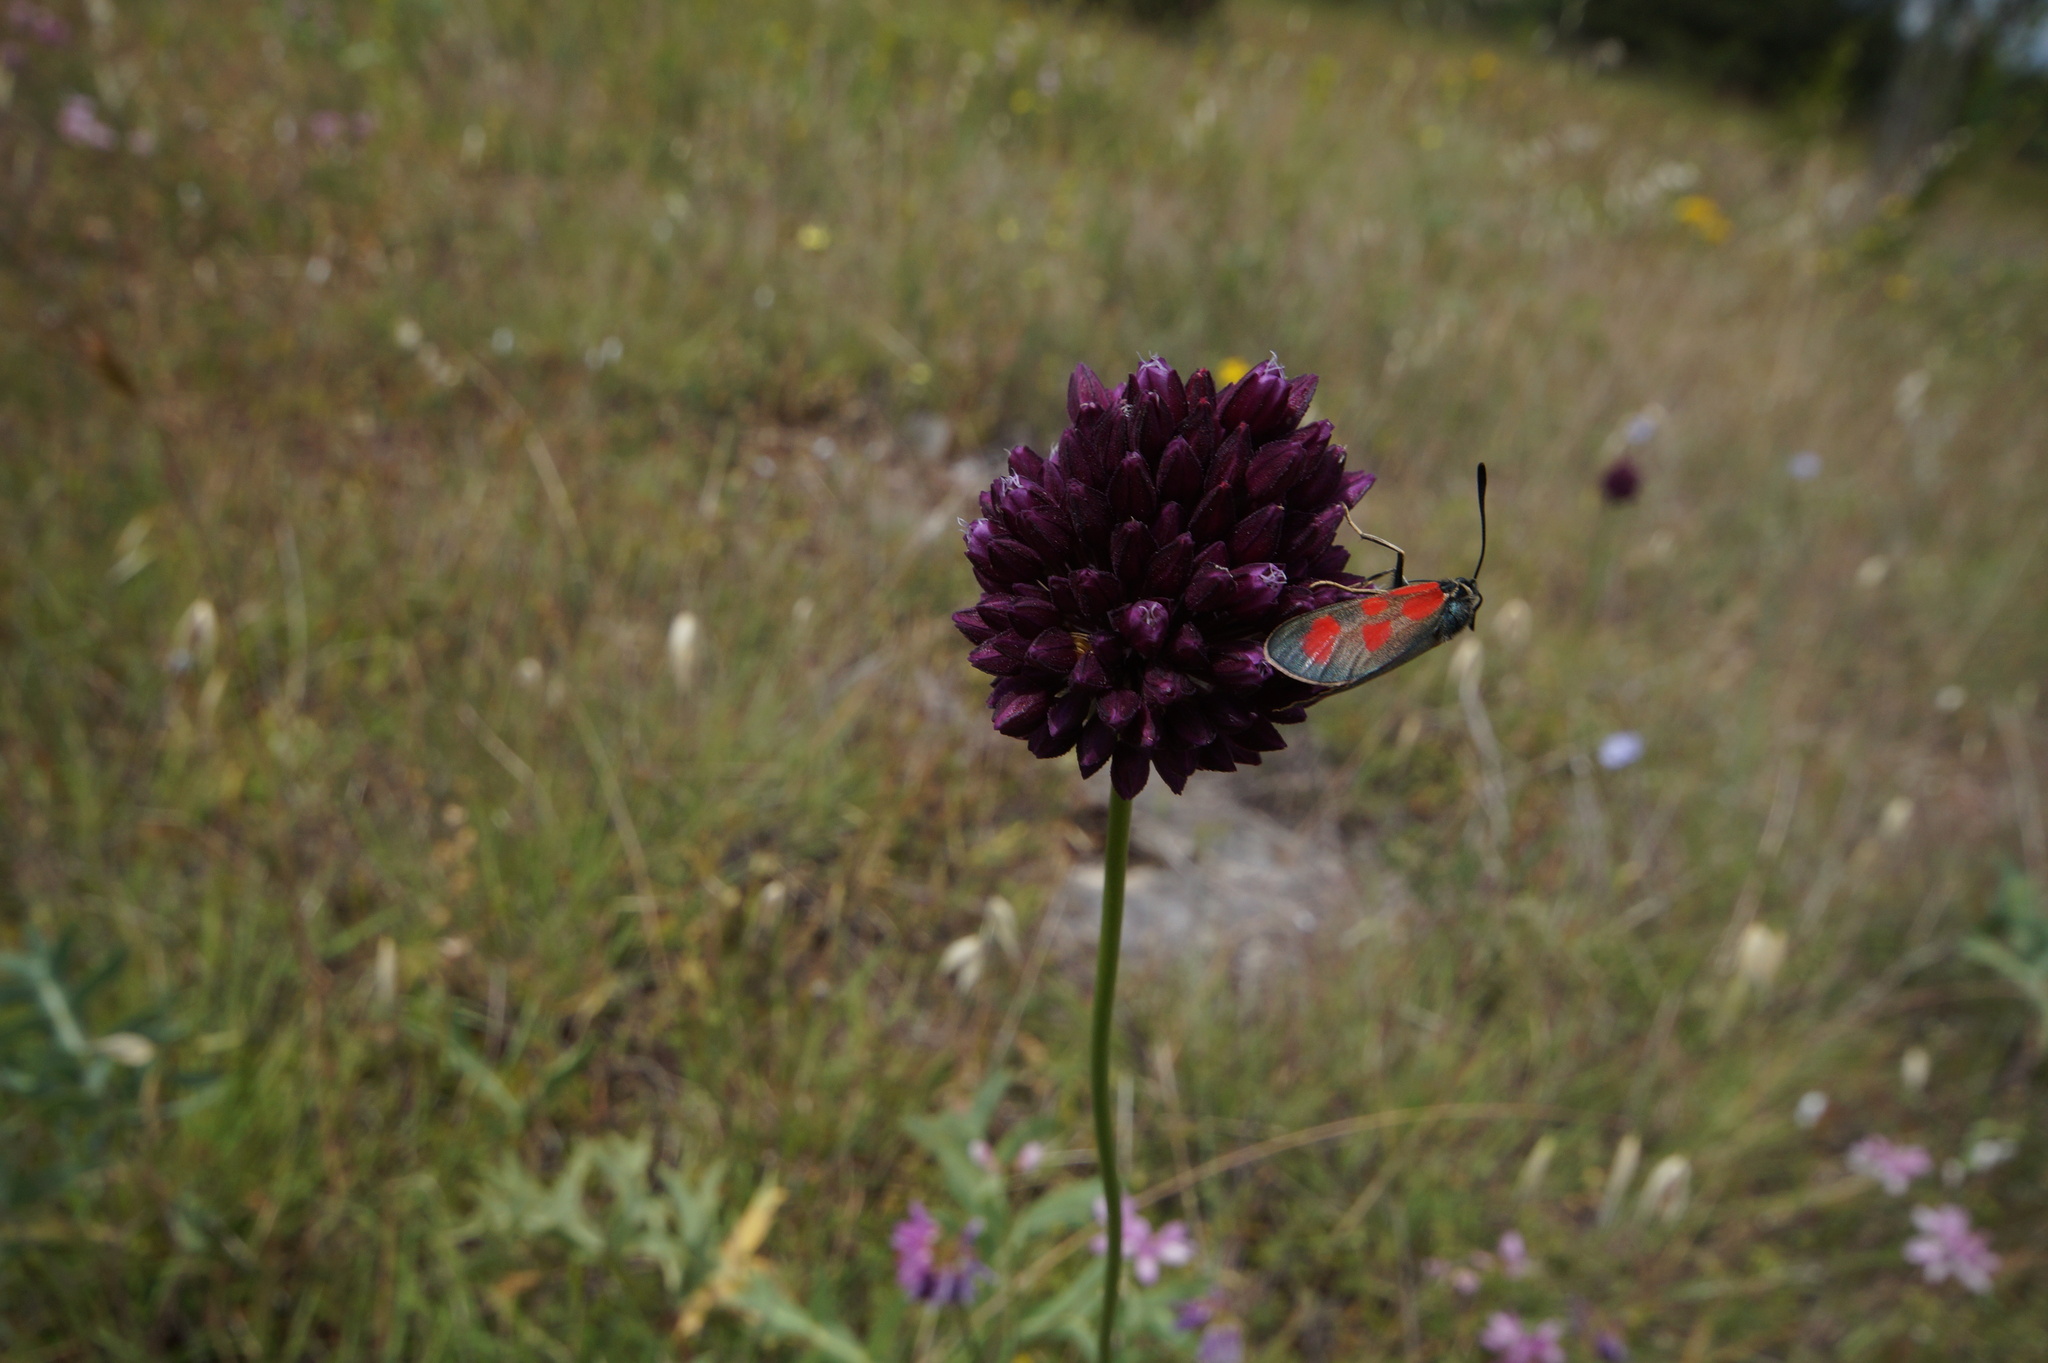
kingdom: Animalia
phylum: Arthropoda
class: Insecta
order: Lepidoptera
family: Zygaenidae
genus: Zygaena
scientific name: Zygaena loti
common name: Slender scotch burnet
